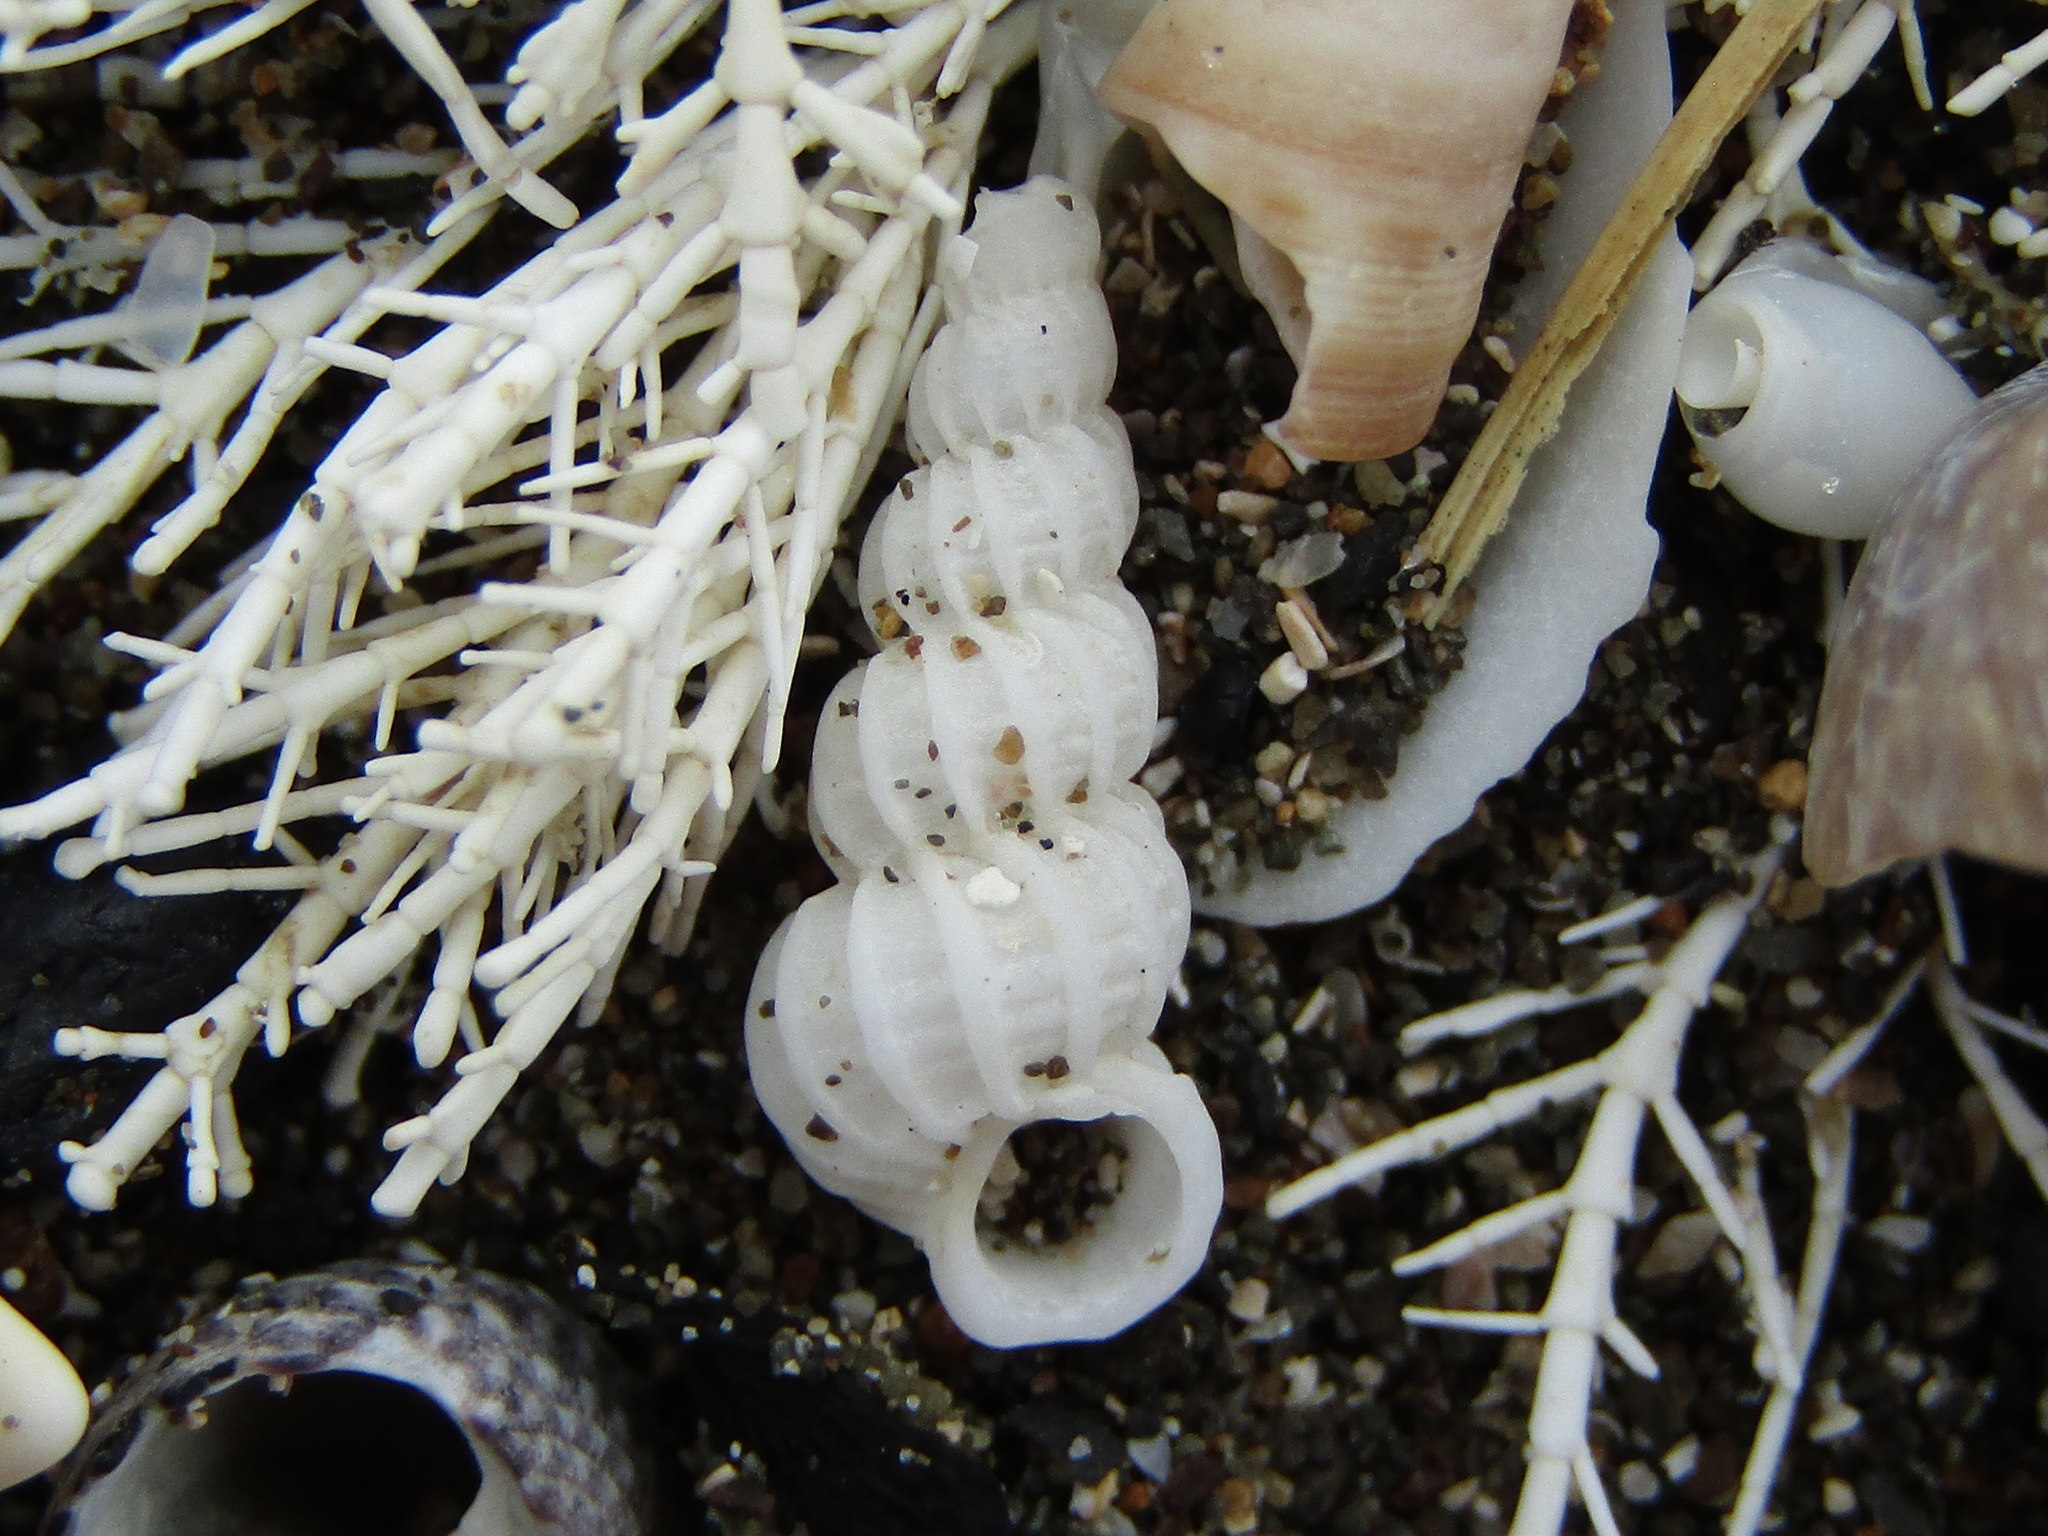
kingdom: Animalia
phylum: Mollusca
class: Gastropoda
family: Epitoniidae
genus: Cirsotrema
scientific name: Cirsotrema zelebori
